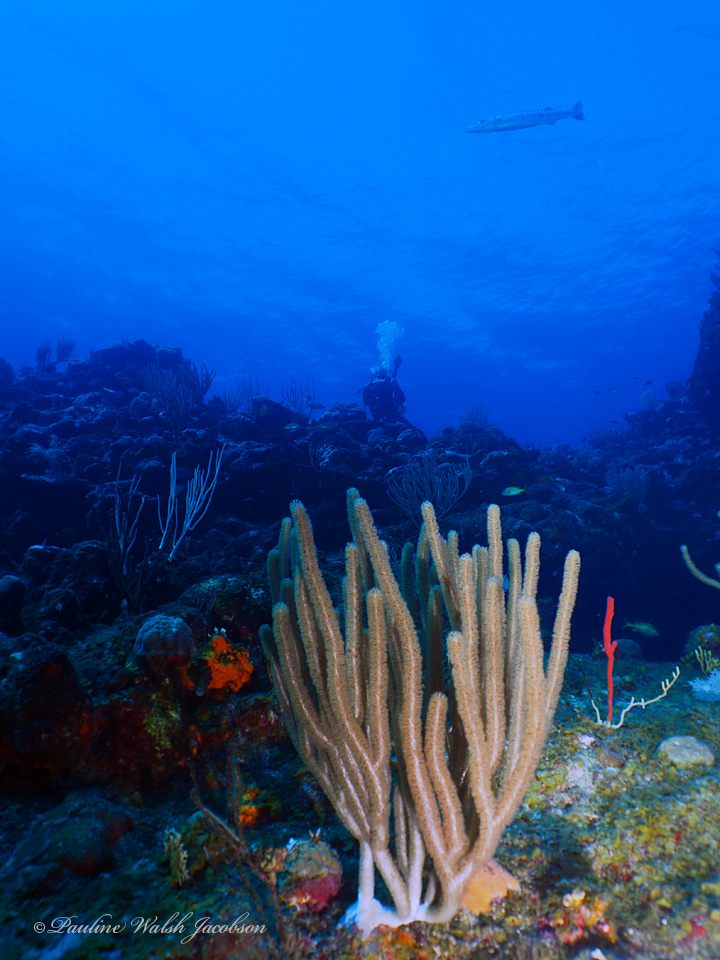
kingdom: Animalia
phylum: Chordata
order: Perciformes
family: Sphyraenidae
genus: Sphyraena
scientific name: Sphyraena barracuda
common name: Great barracuda
